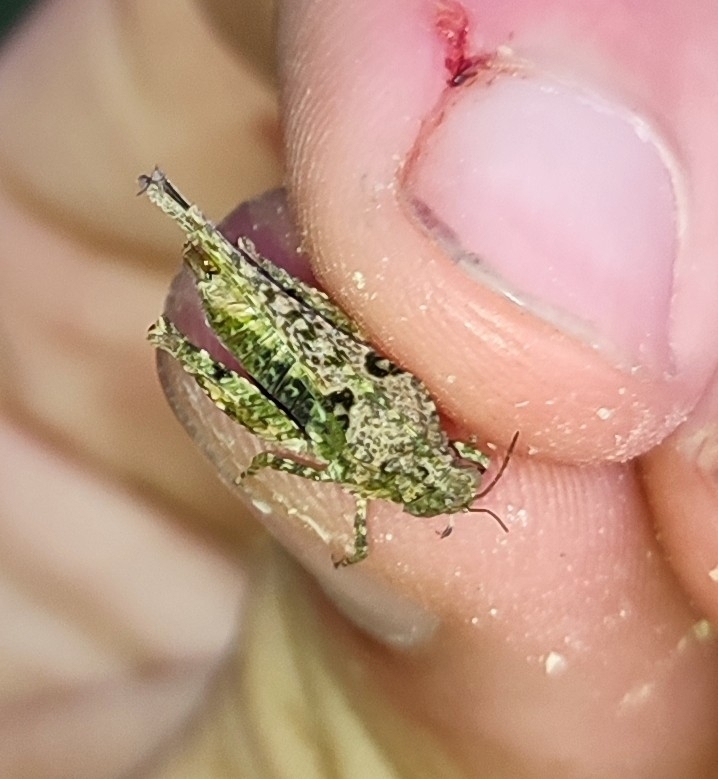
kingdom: Animalia
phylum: Arthropoda
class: Insecta
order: Orthoptera
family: Tetrigidae
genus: Paratettix
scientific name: Paratettix meridionalis
